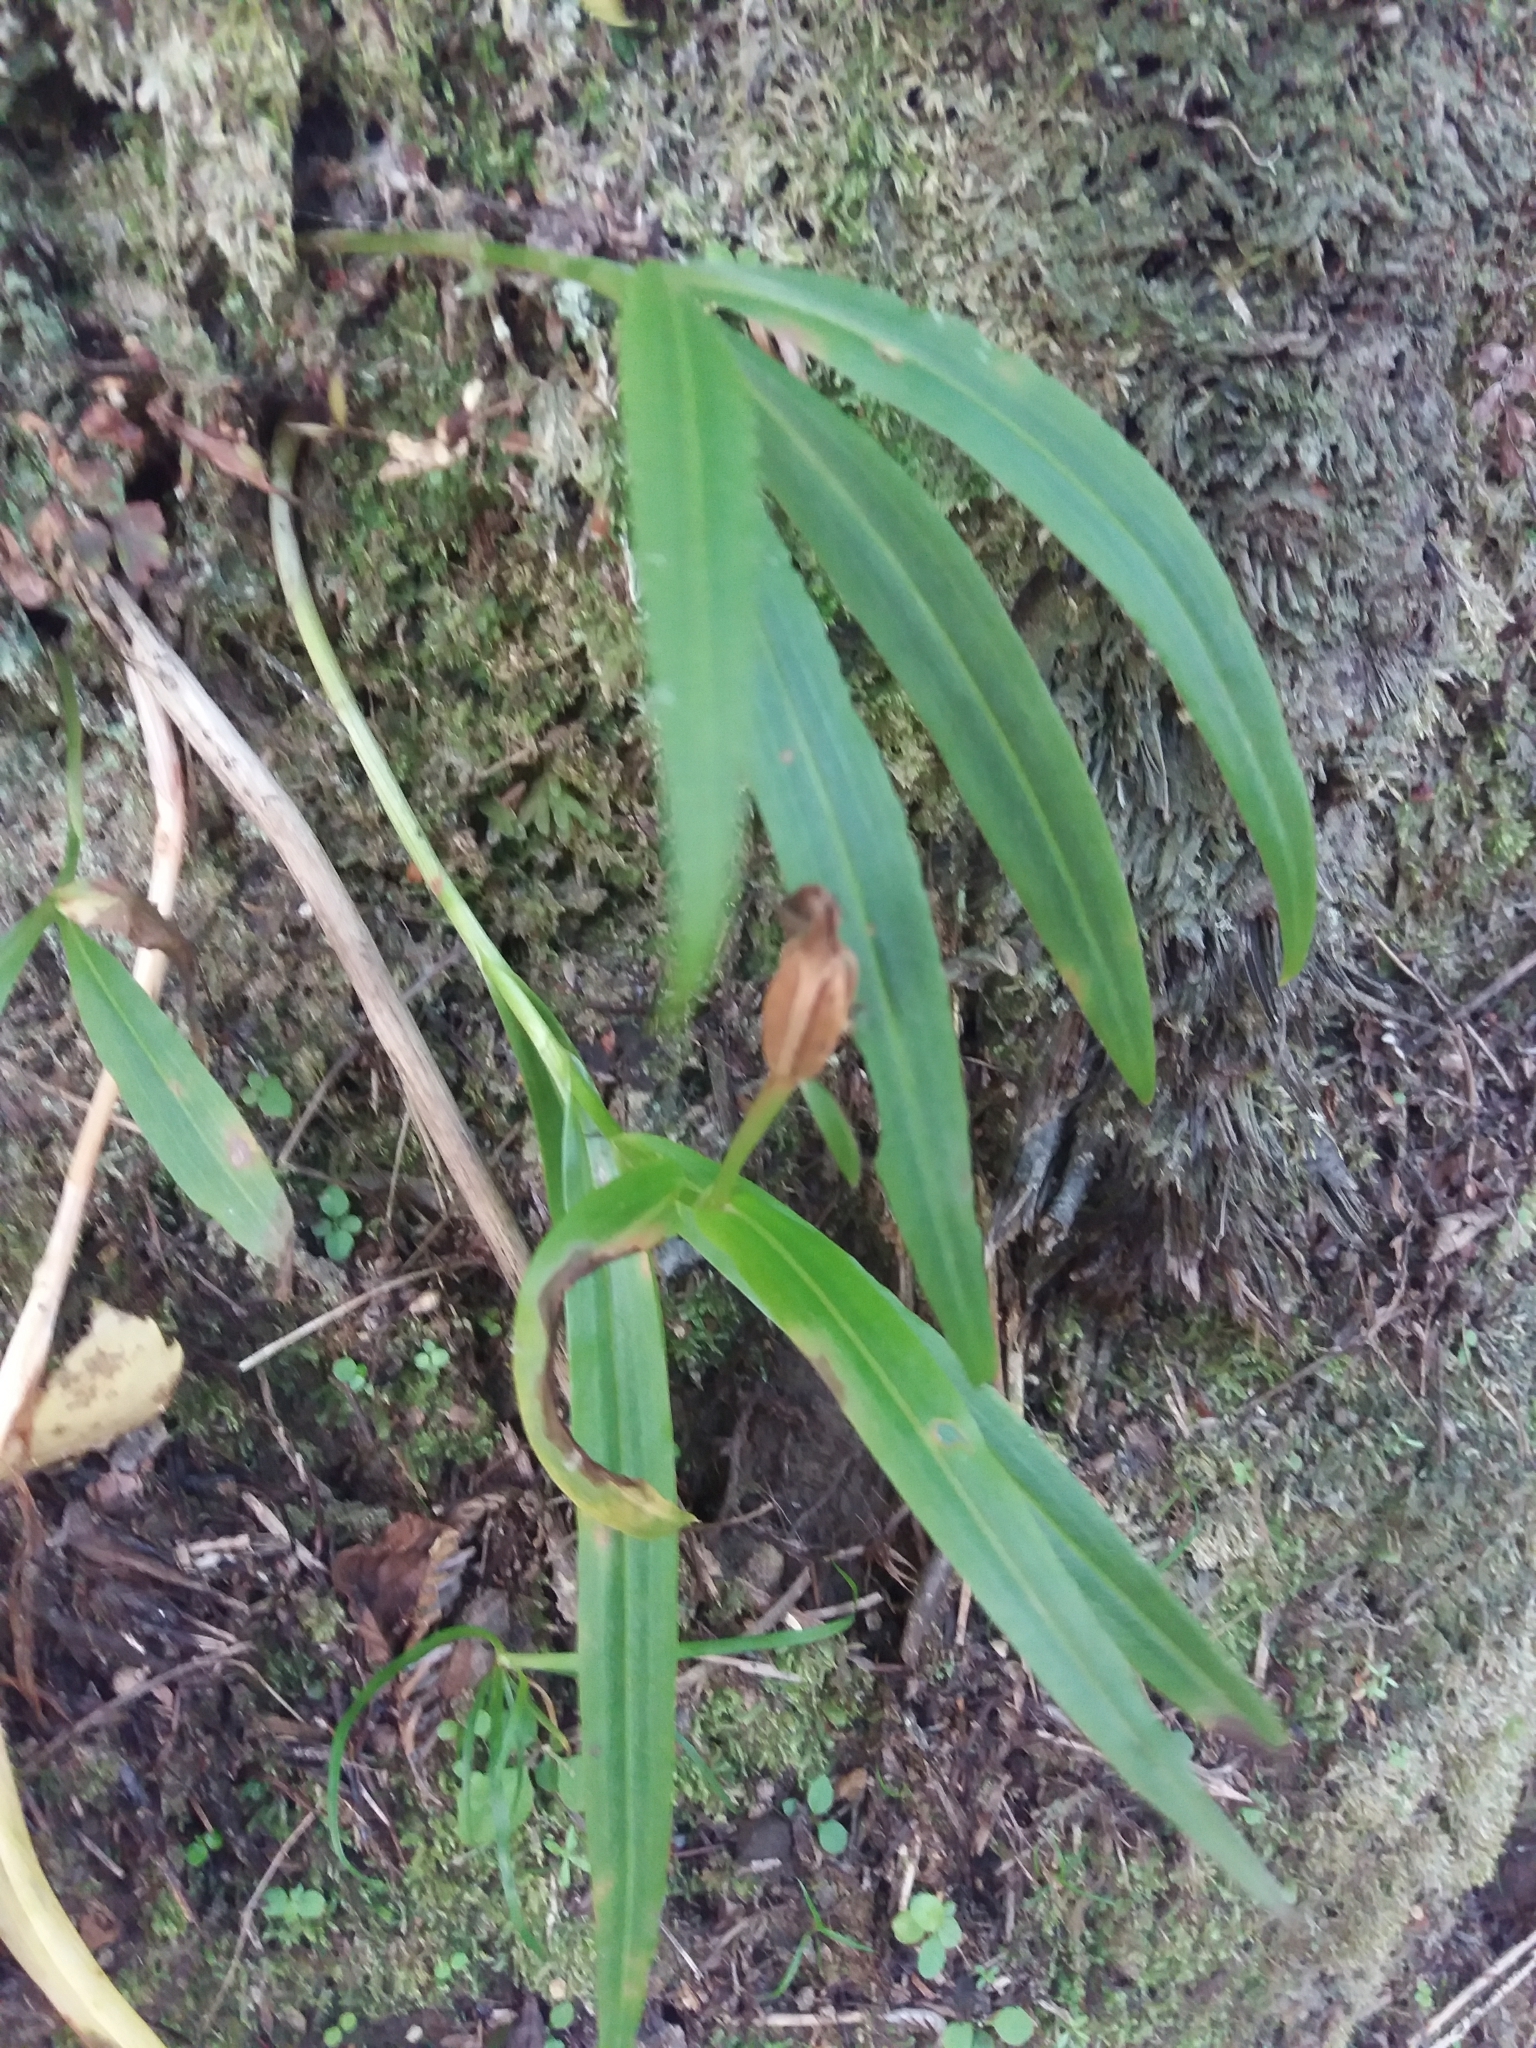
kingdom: Plantae
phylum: Tracheophyta
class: Liliopsida
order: Asparagales
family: Orchidaceae
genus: Pterostylis
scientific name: Pterostylis banksii
